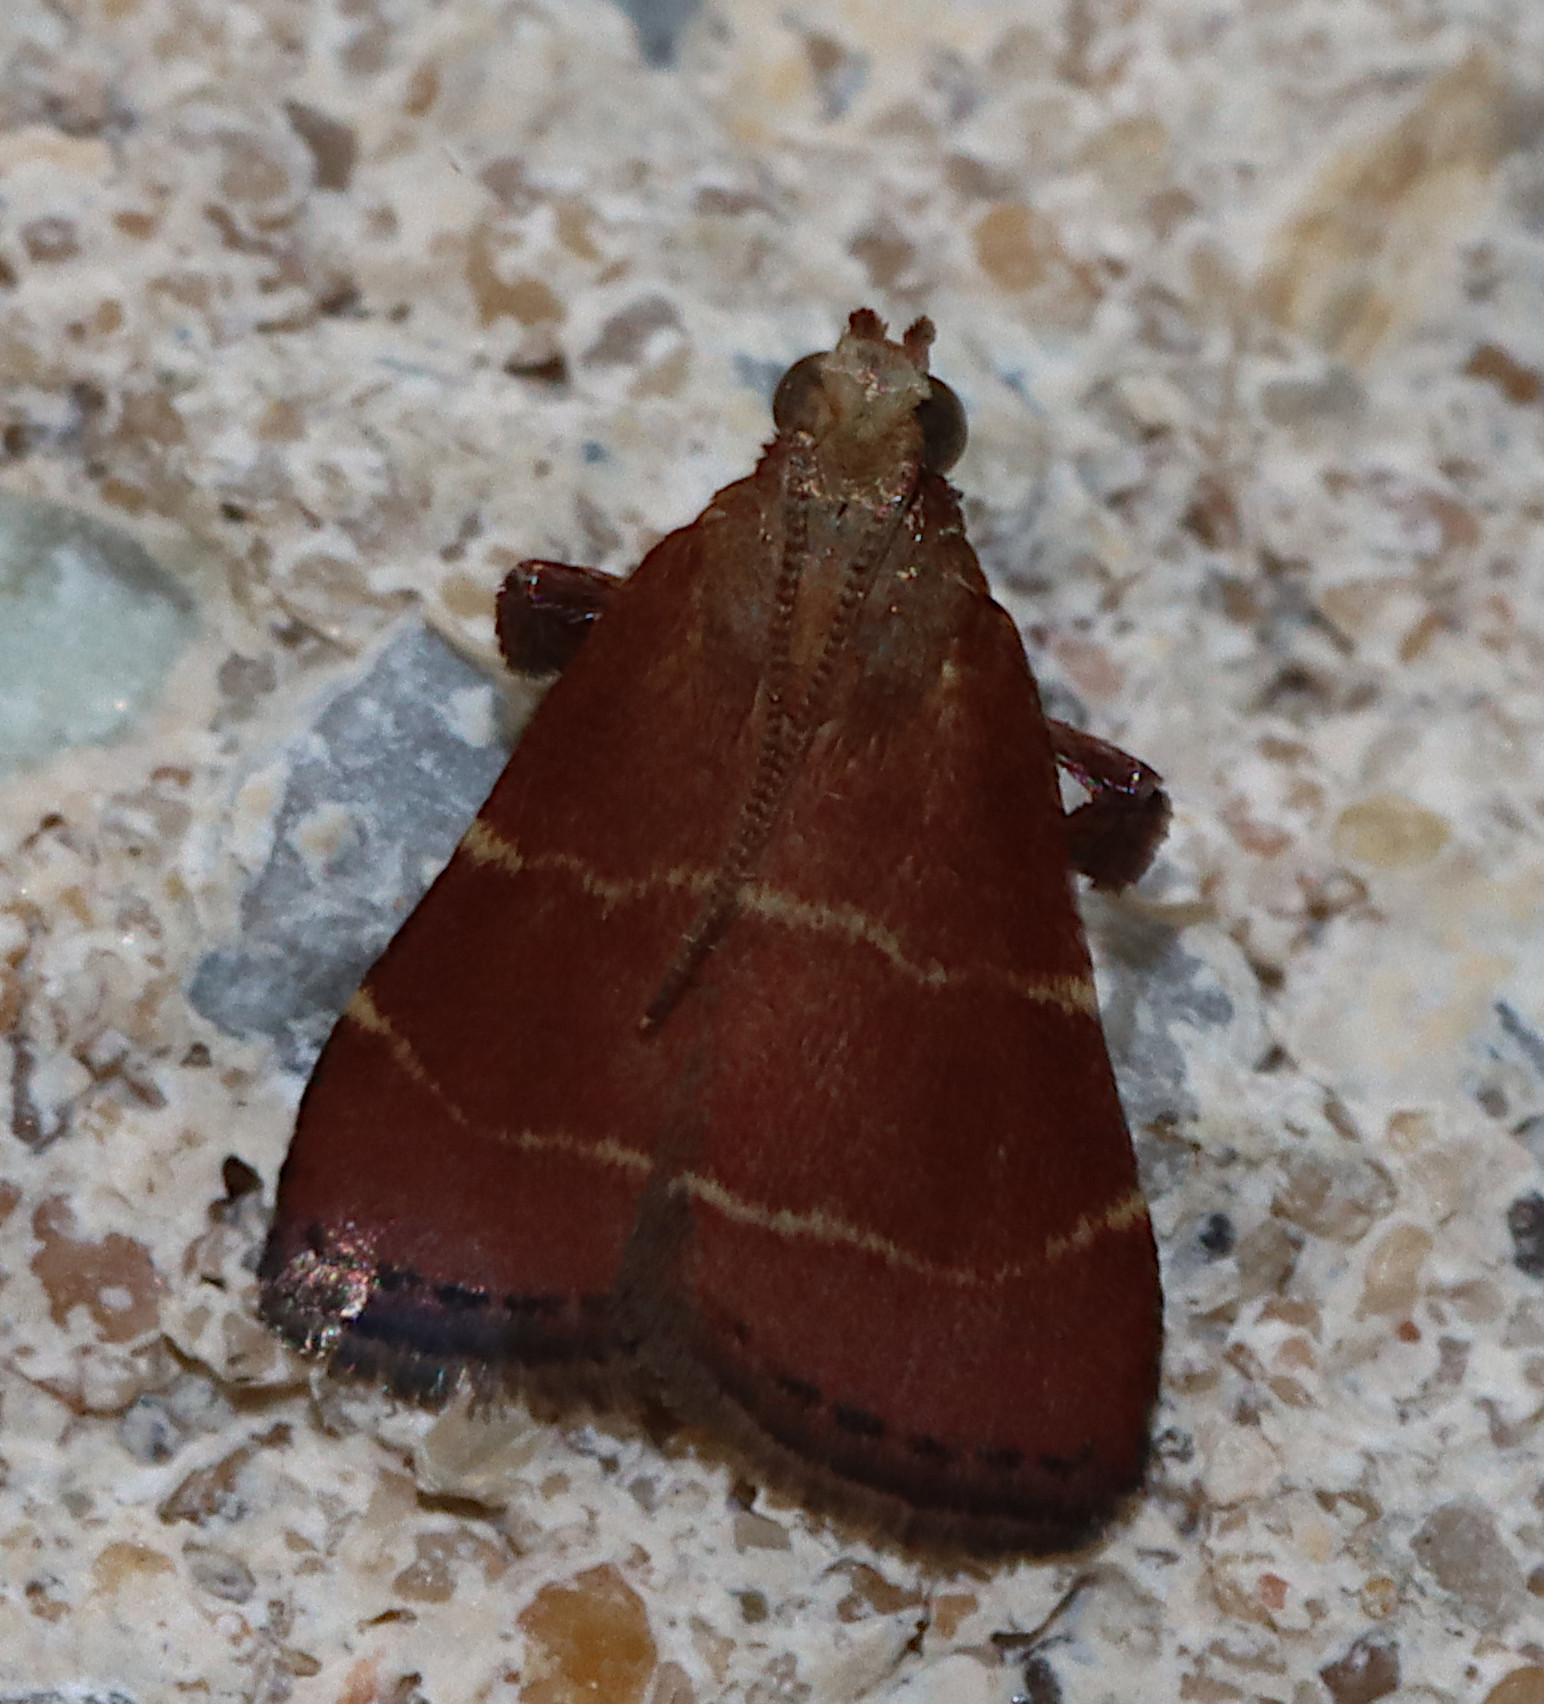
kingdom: Animalia
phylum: Arthropoda
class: Insecta
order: Lepidoptera
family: Pyralidae
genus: Arta
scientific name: Arta statalis
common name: Posturing arta moth
